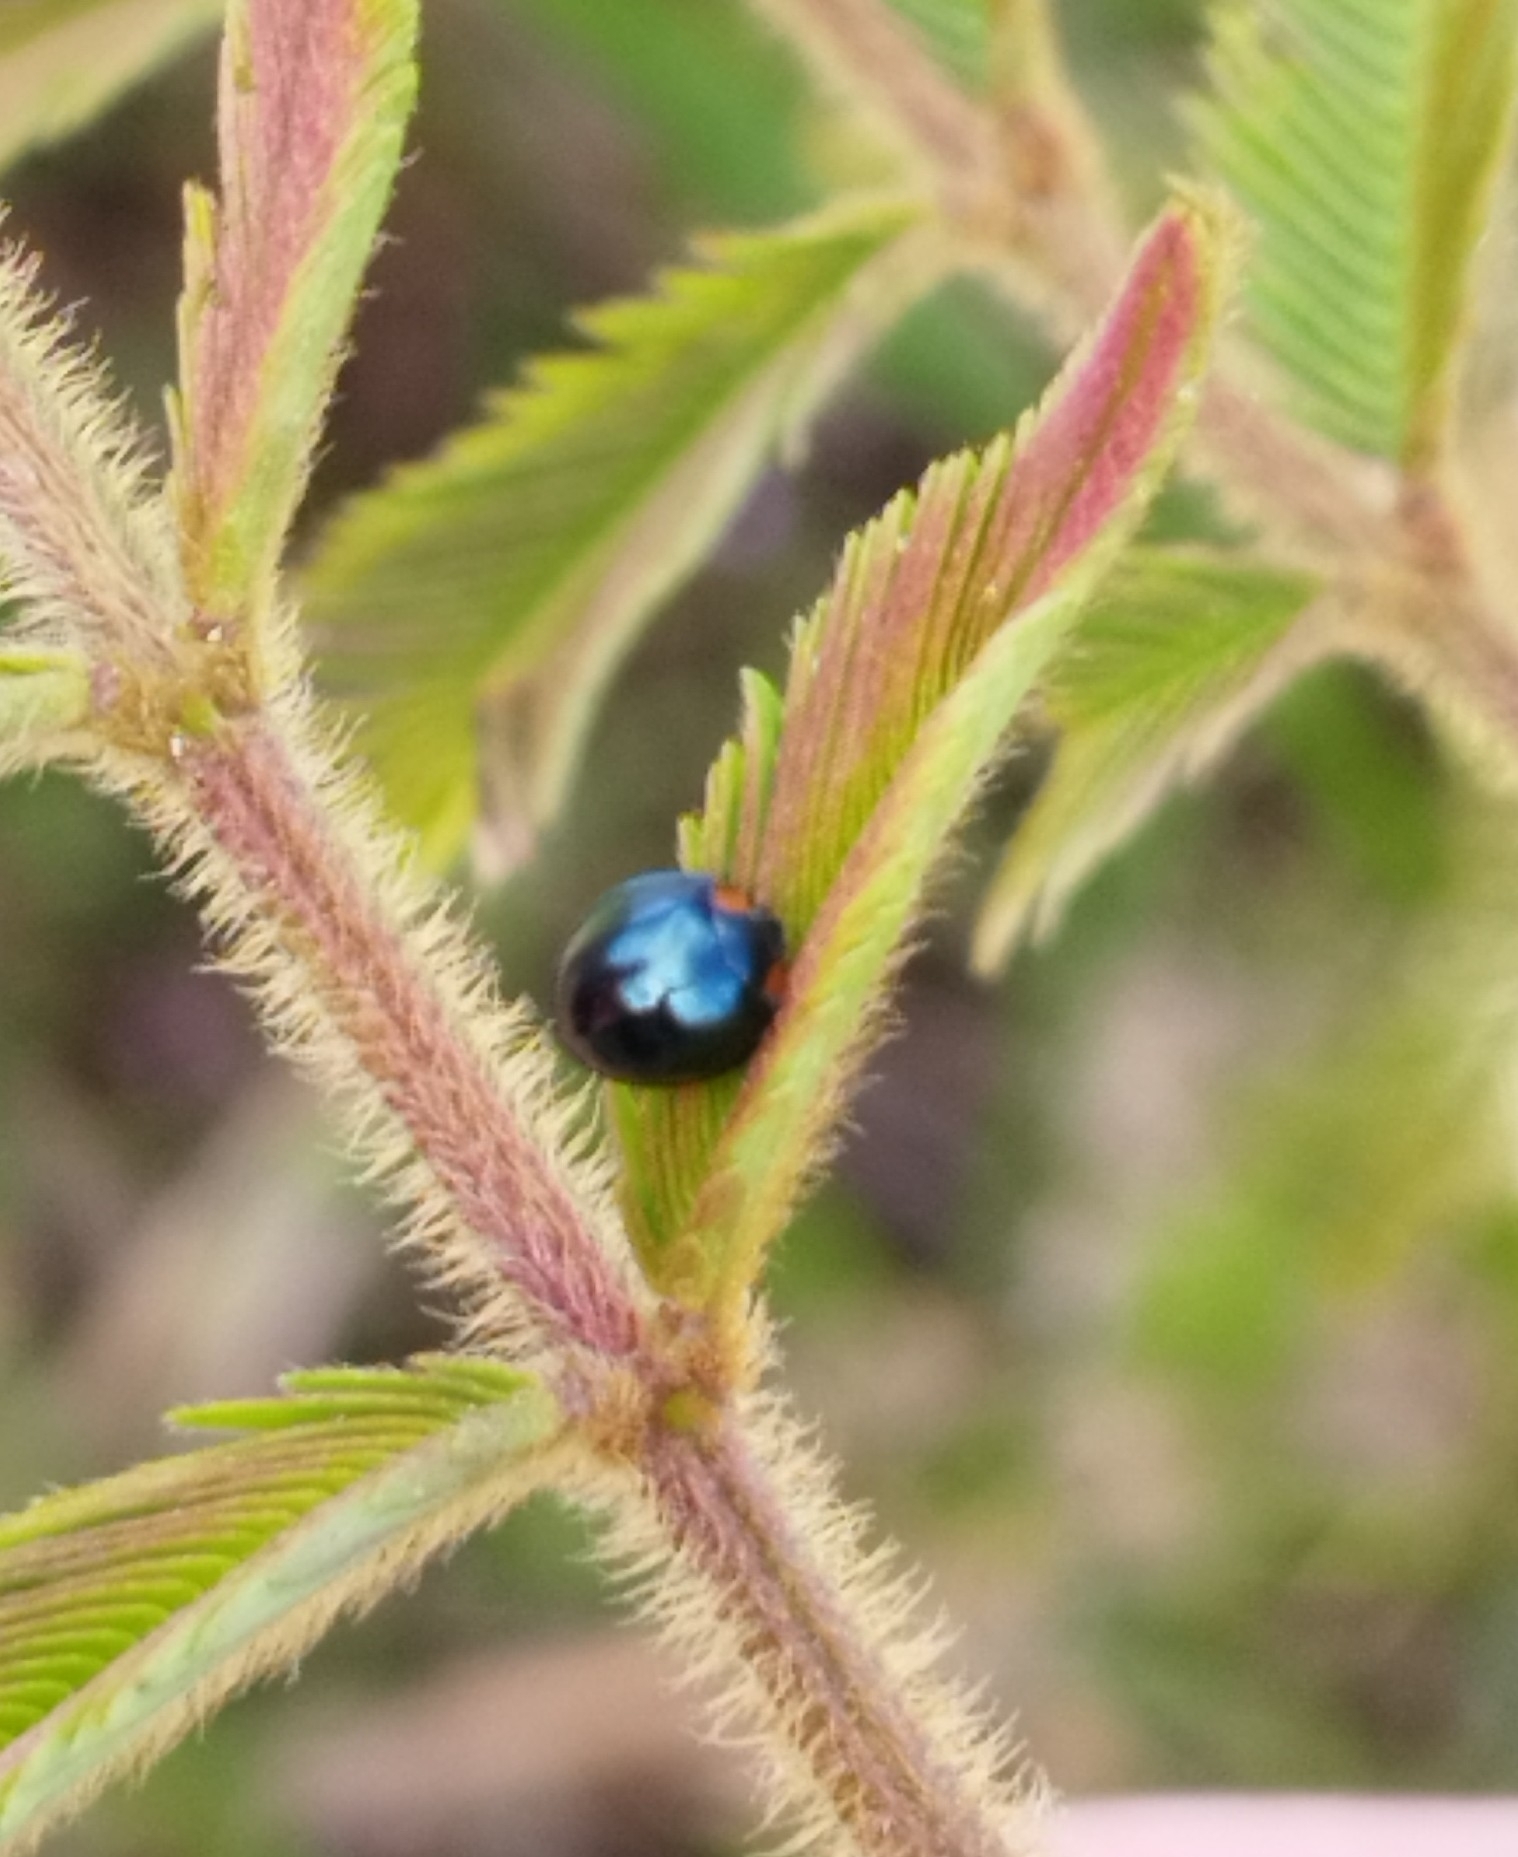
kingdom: Animalia
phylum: Arthropoda
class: Insecta
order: Coleoptera
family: Coccinellidae
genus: Curinus
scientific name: Curinus coeruleus
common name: Ladybird beetle
